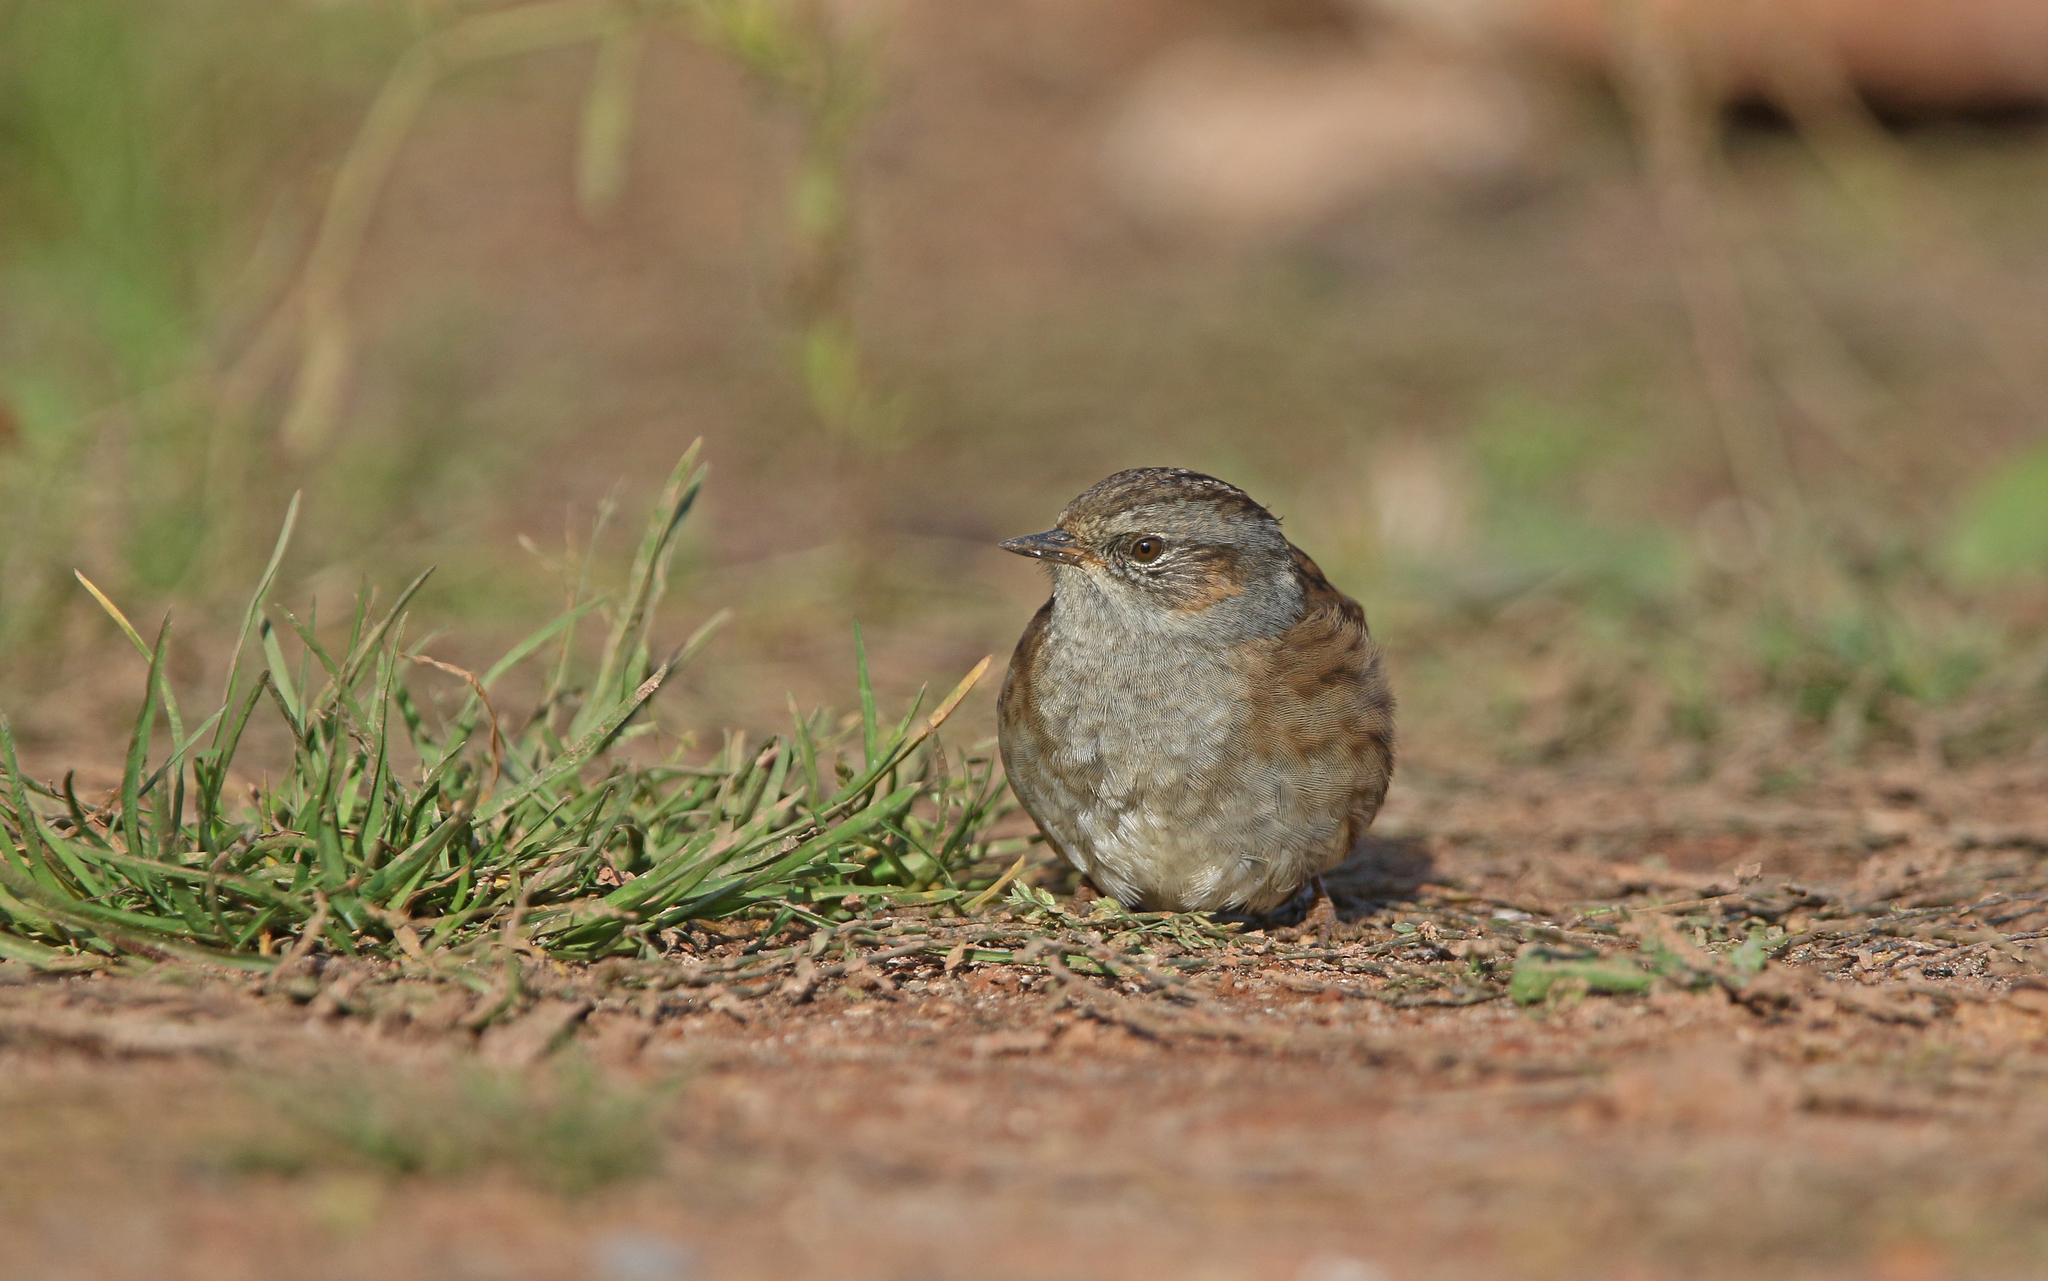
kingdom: Animalia
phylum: Chordata
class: Aves
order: Passeriformes
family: Prunellidae
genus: Prunella
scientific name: Prunella modularis
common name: Dunnock
